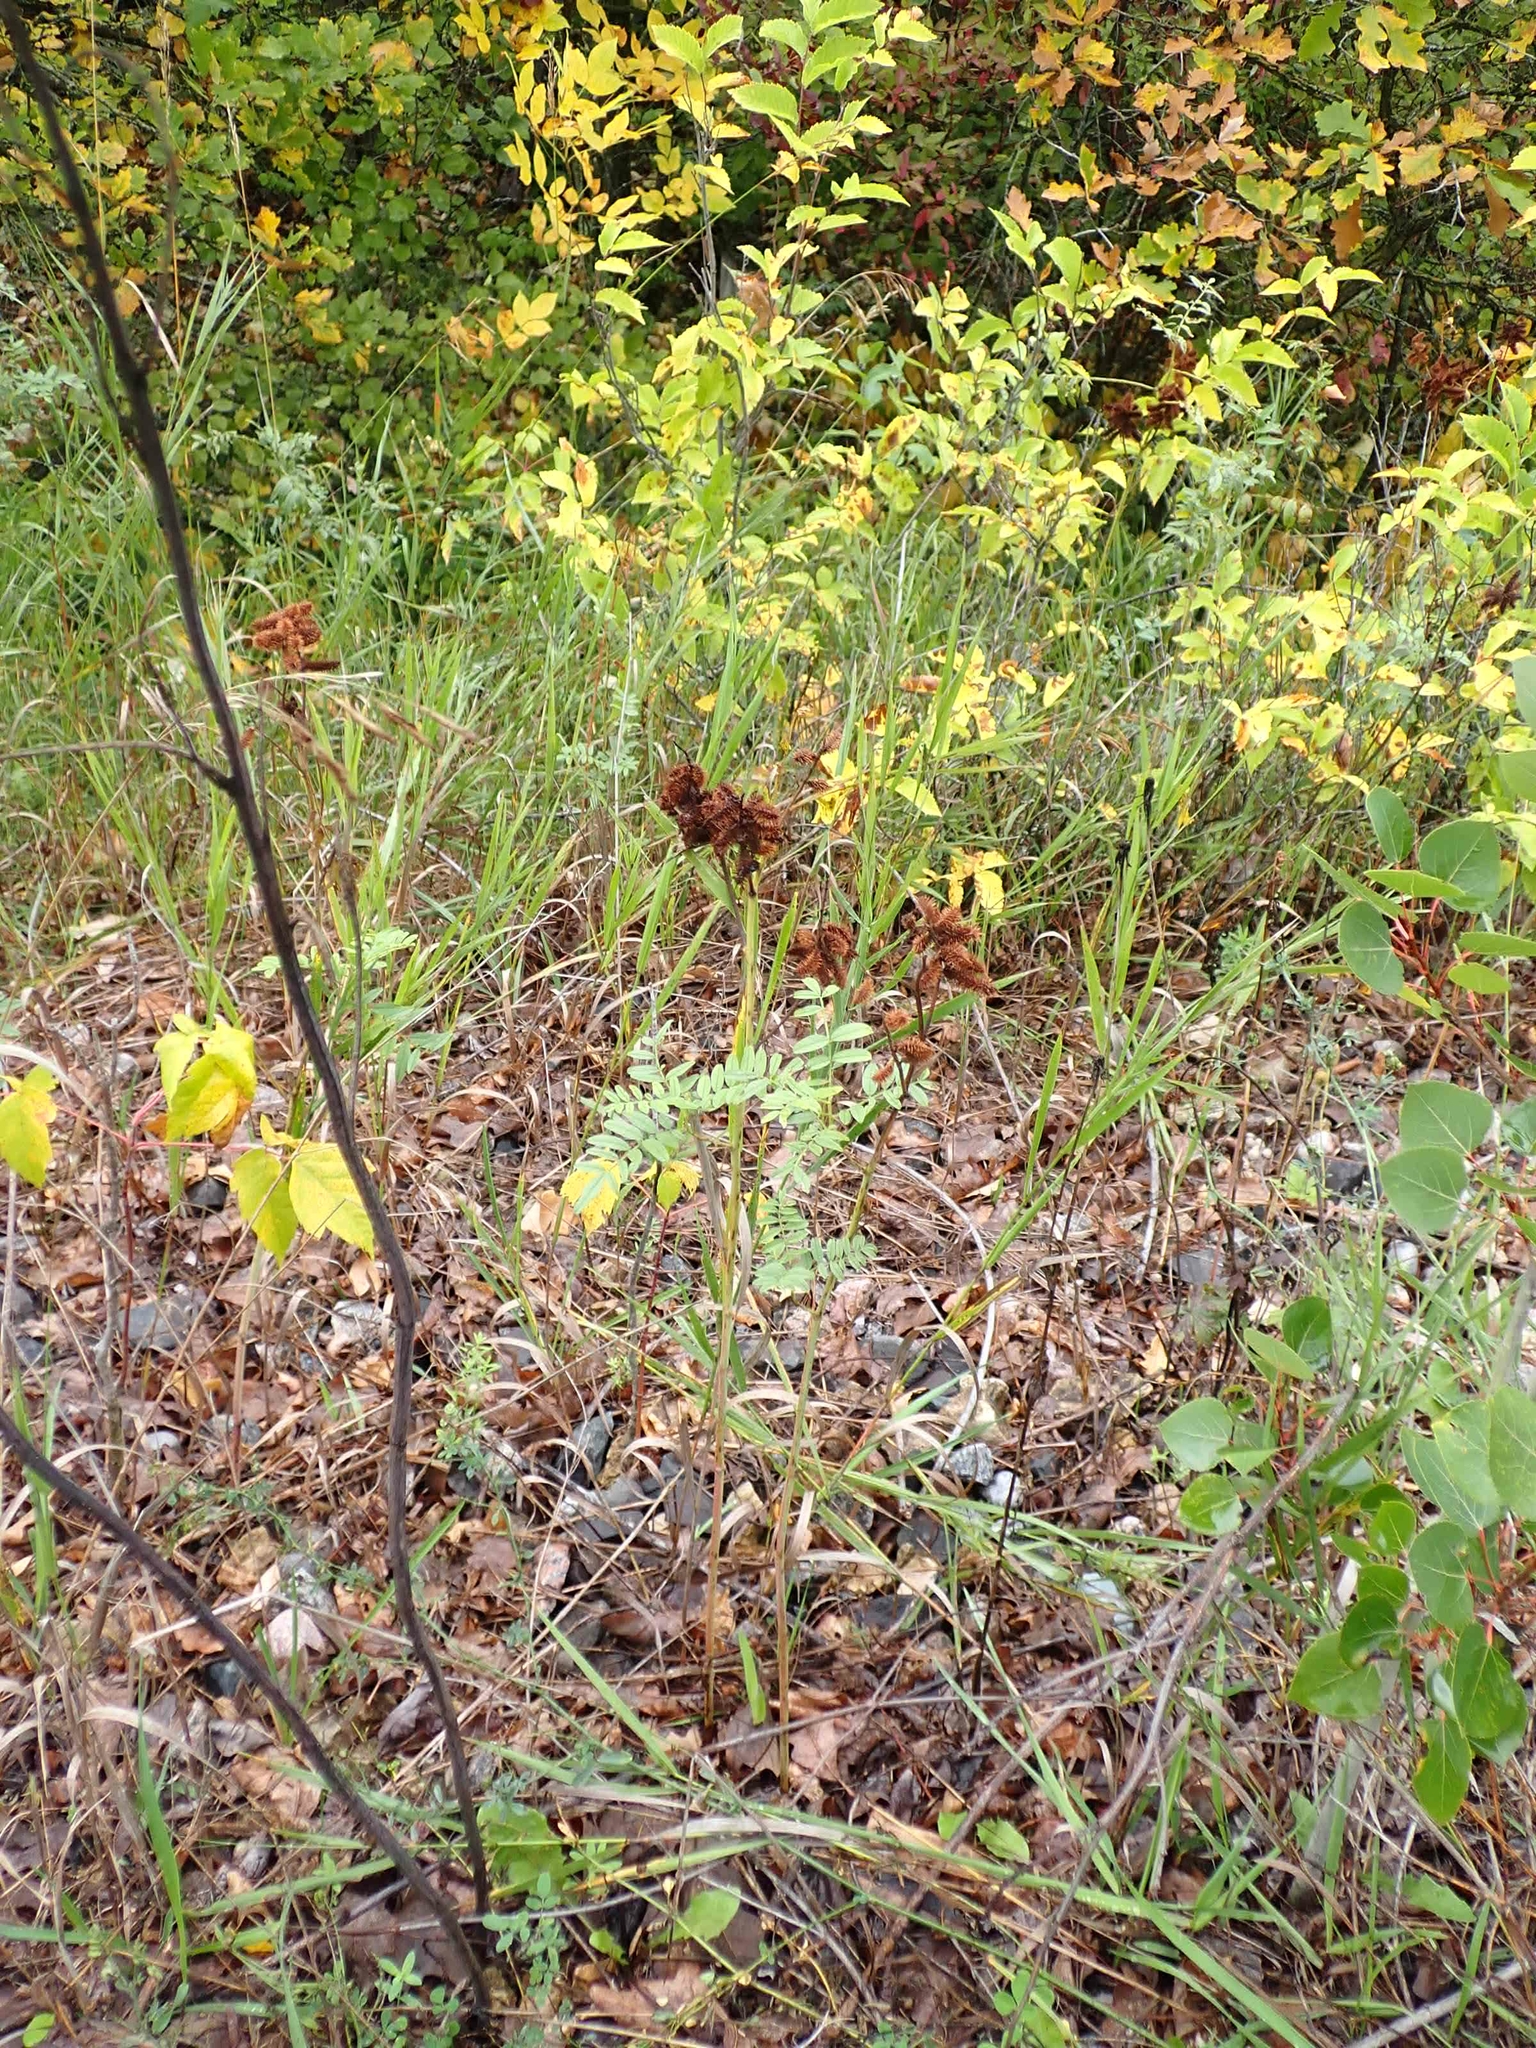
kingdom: Plantae
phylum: Tracheophyta
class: Magnoliopsida
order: Fabales
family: Fabaceae
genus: Glycyrrhiza
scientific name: Glycyrrhiza lepidota
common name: American liquorice
